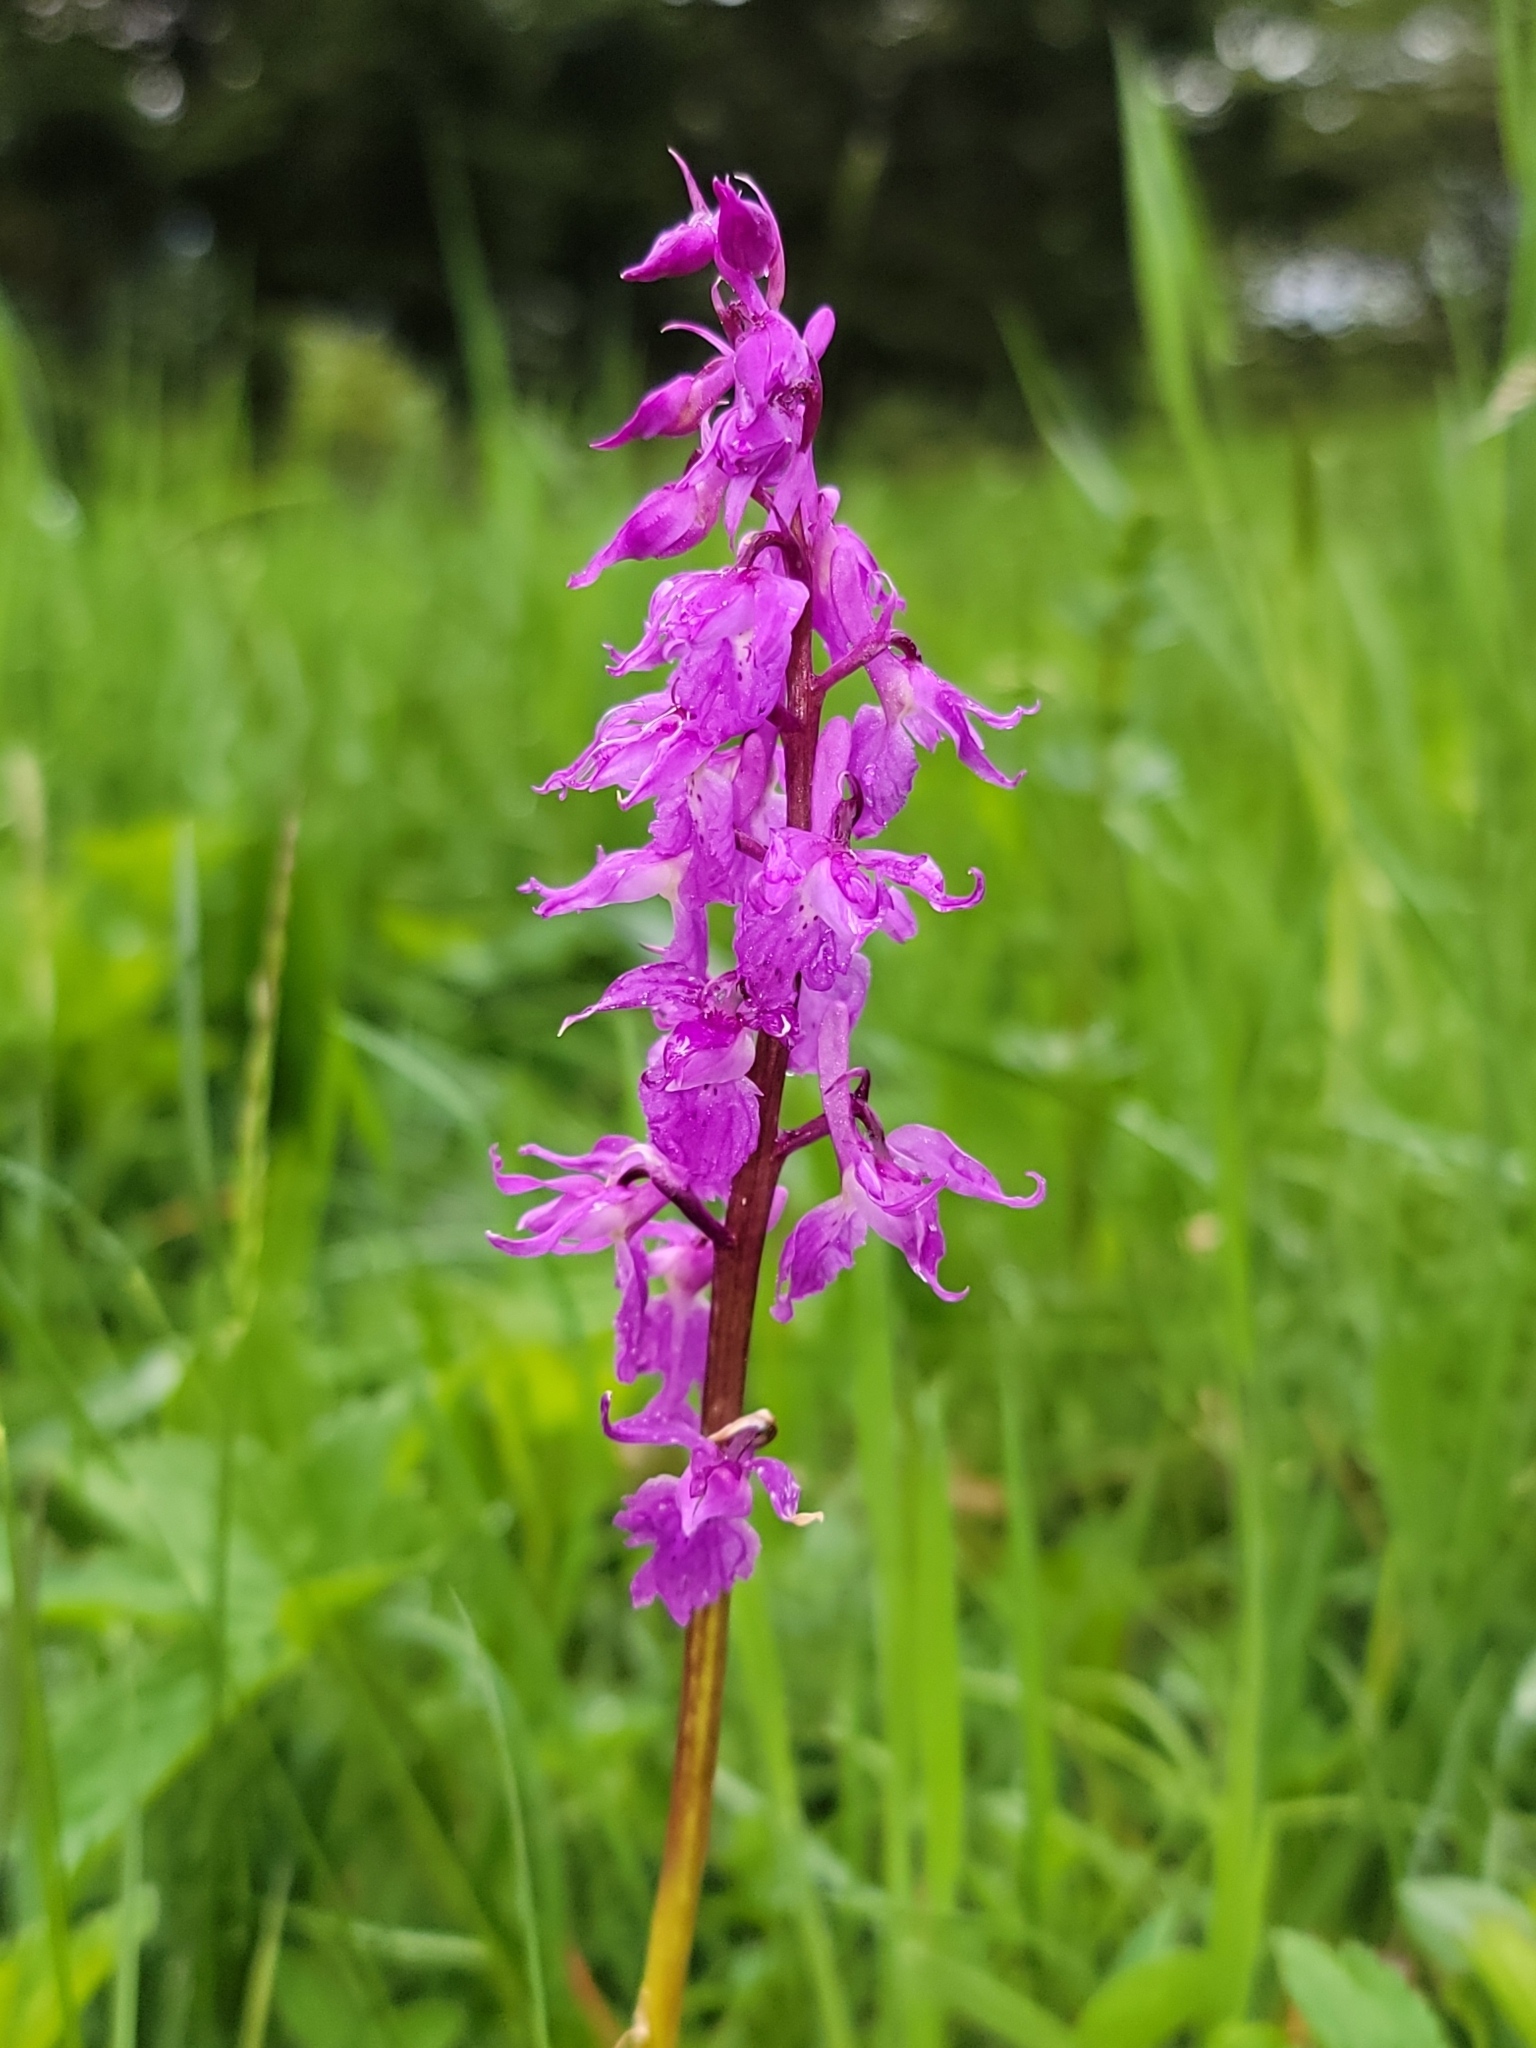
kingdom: Plantae
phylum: Tracheophyta
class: Liliopsida
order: Asparagales
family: Orchidaceae
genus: Orchis
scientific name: Orchis mascula
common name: Early-purple orchid
